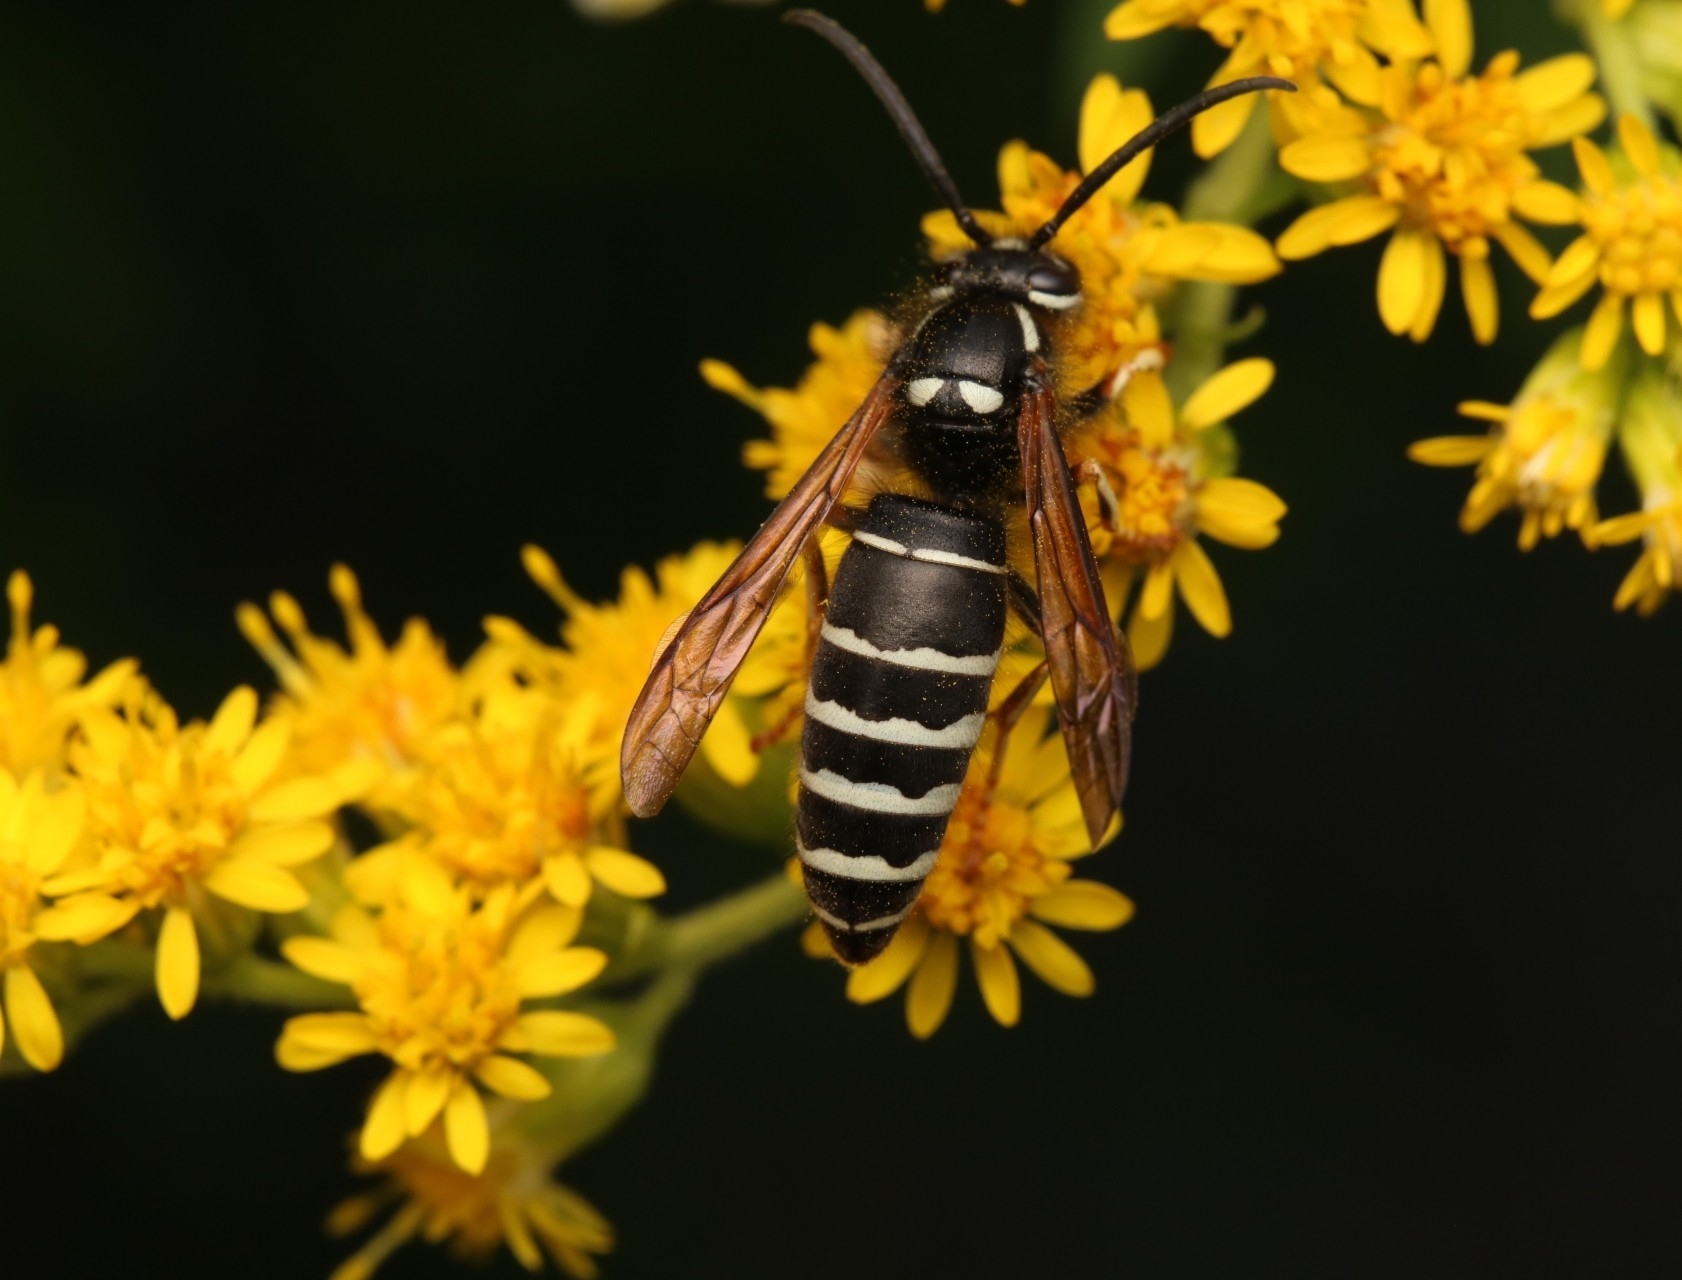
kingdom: Animalia
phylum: Arthropoda
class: Insecta
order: Hymenoptera
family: Vespidae
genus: Vespula
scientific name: Vespula consobrina
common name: Blackjacket
